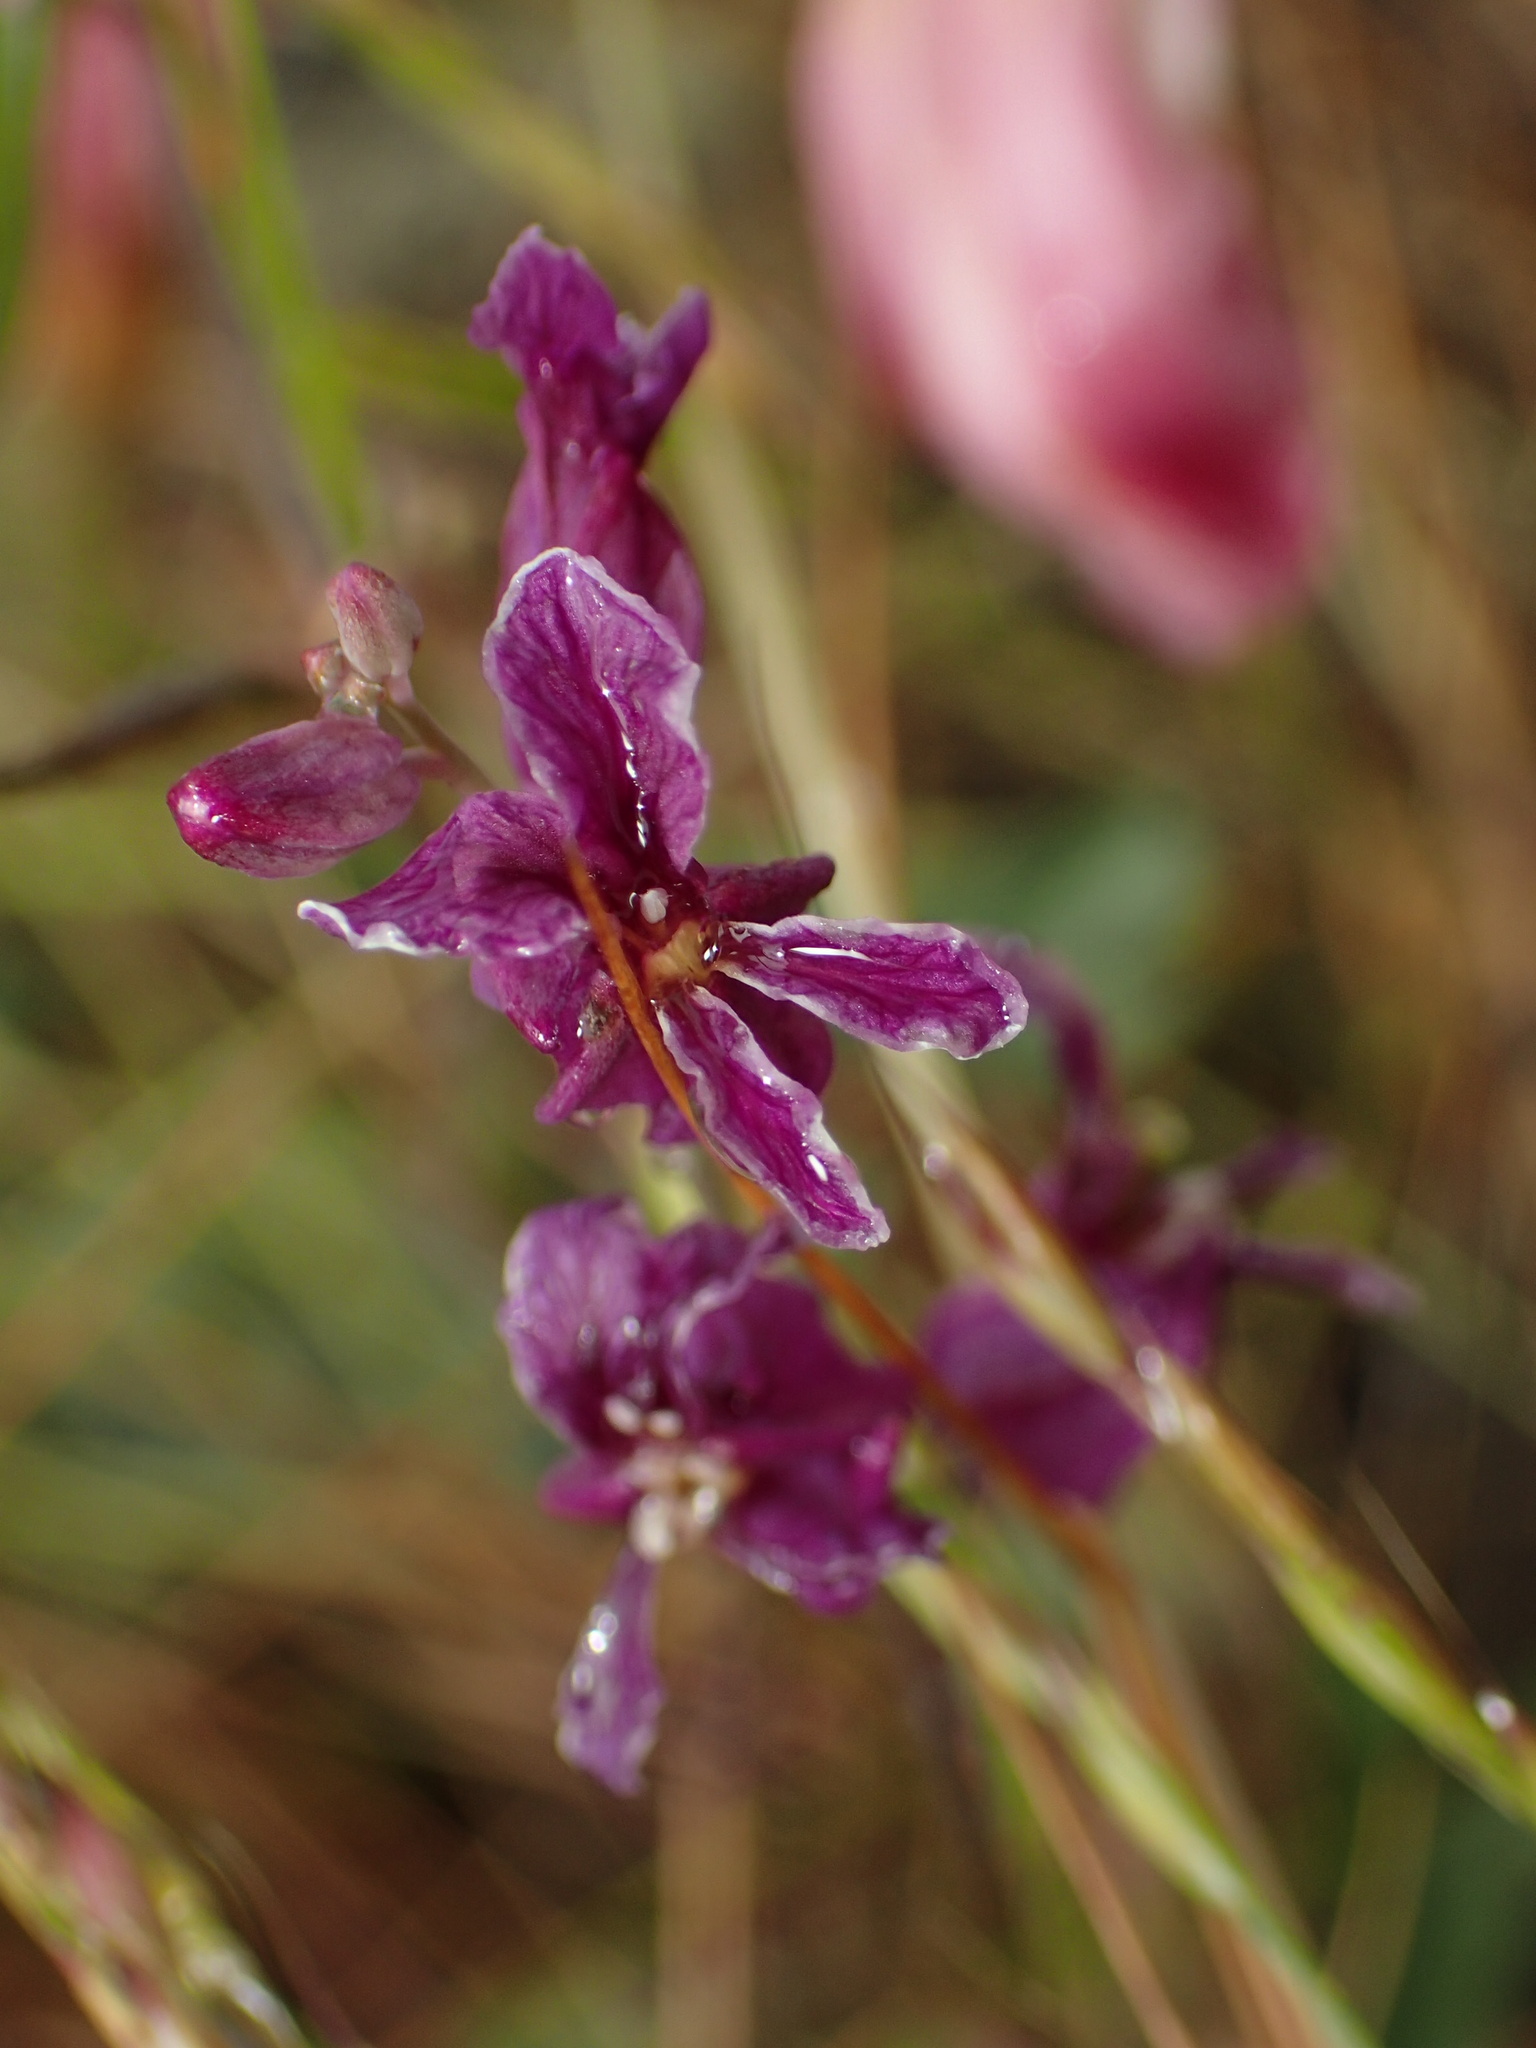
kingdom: Plantae
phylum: Tracheophyta
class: Magnoliopsida
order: Brassicales
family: Brassicaceae
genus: Streptanthus
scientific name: Streptanthus glandulosus
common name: Jewel-flower
